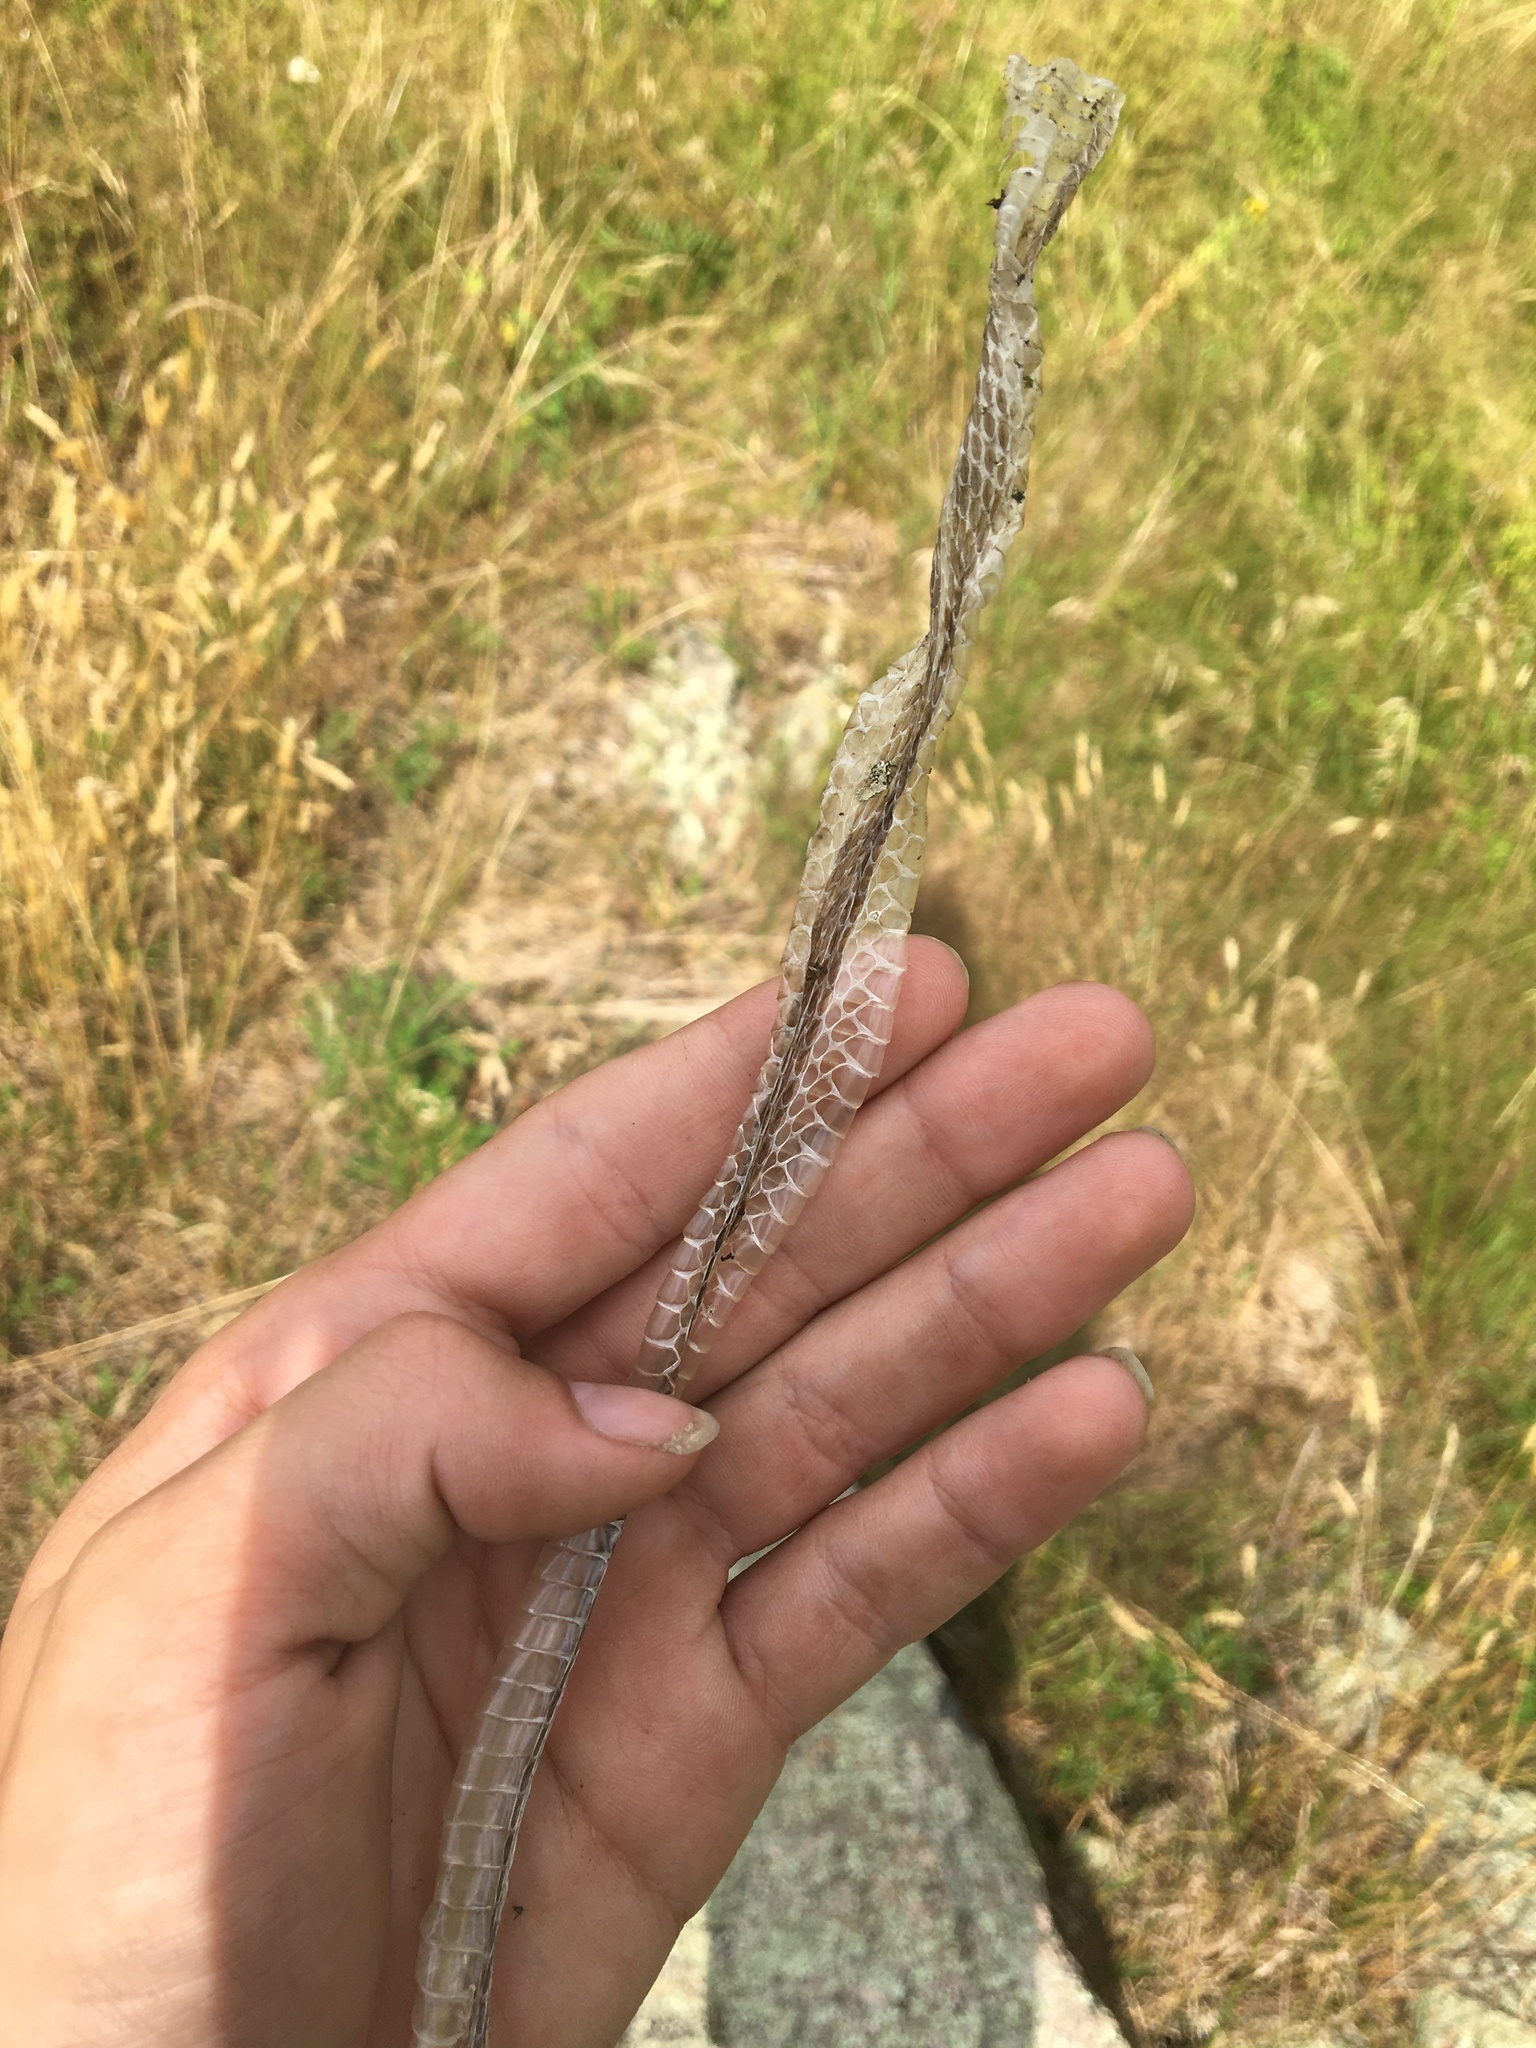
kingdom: Animalia
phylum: Chordata
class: Squamata
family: Colubridae
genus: Thamnophis
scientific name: Thamnophis sirtalis
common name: Common garter snake
